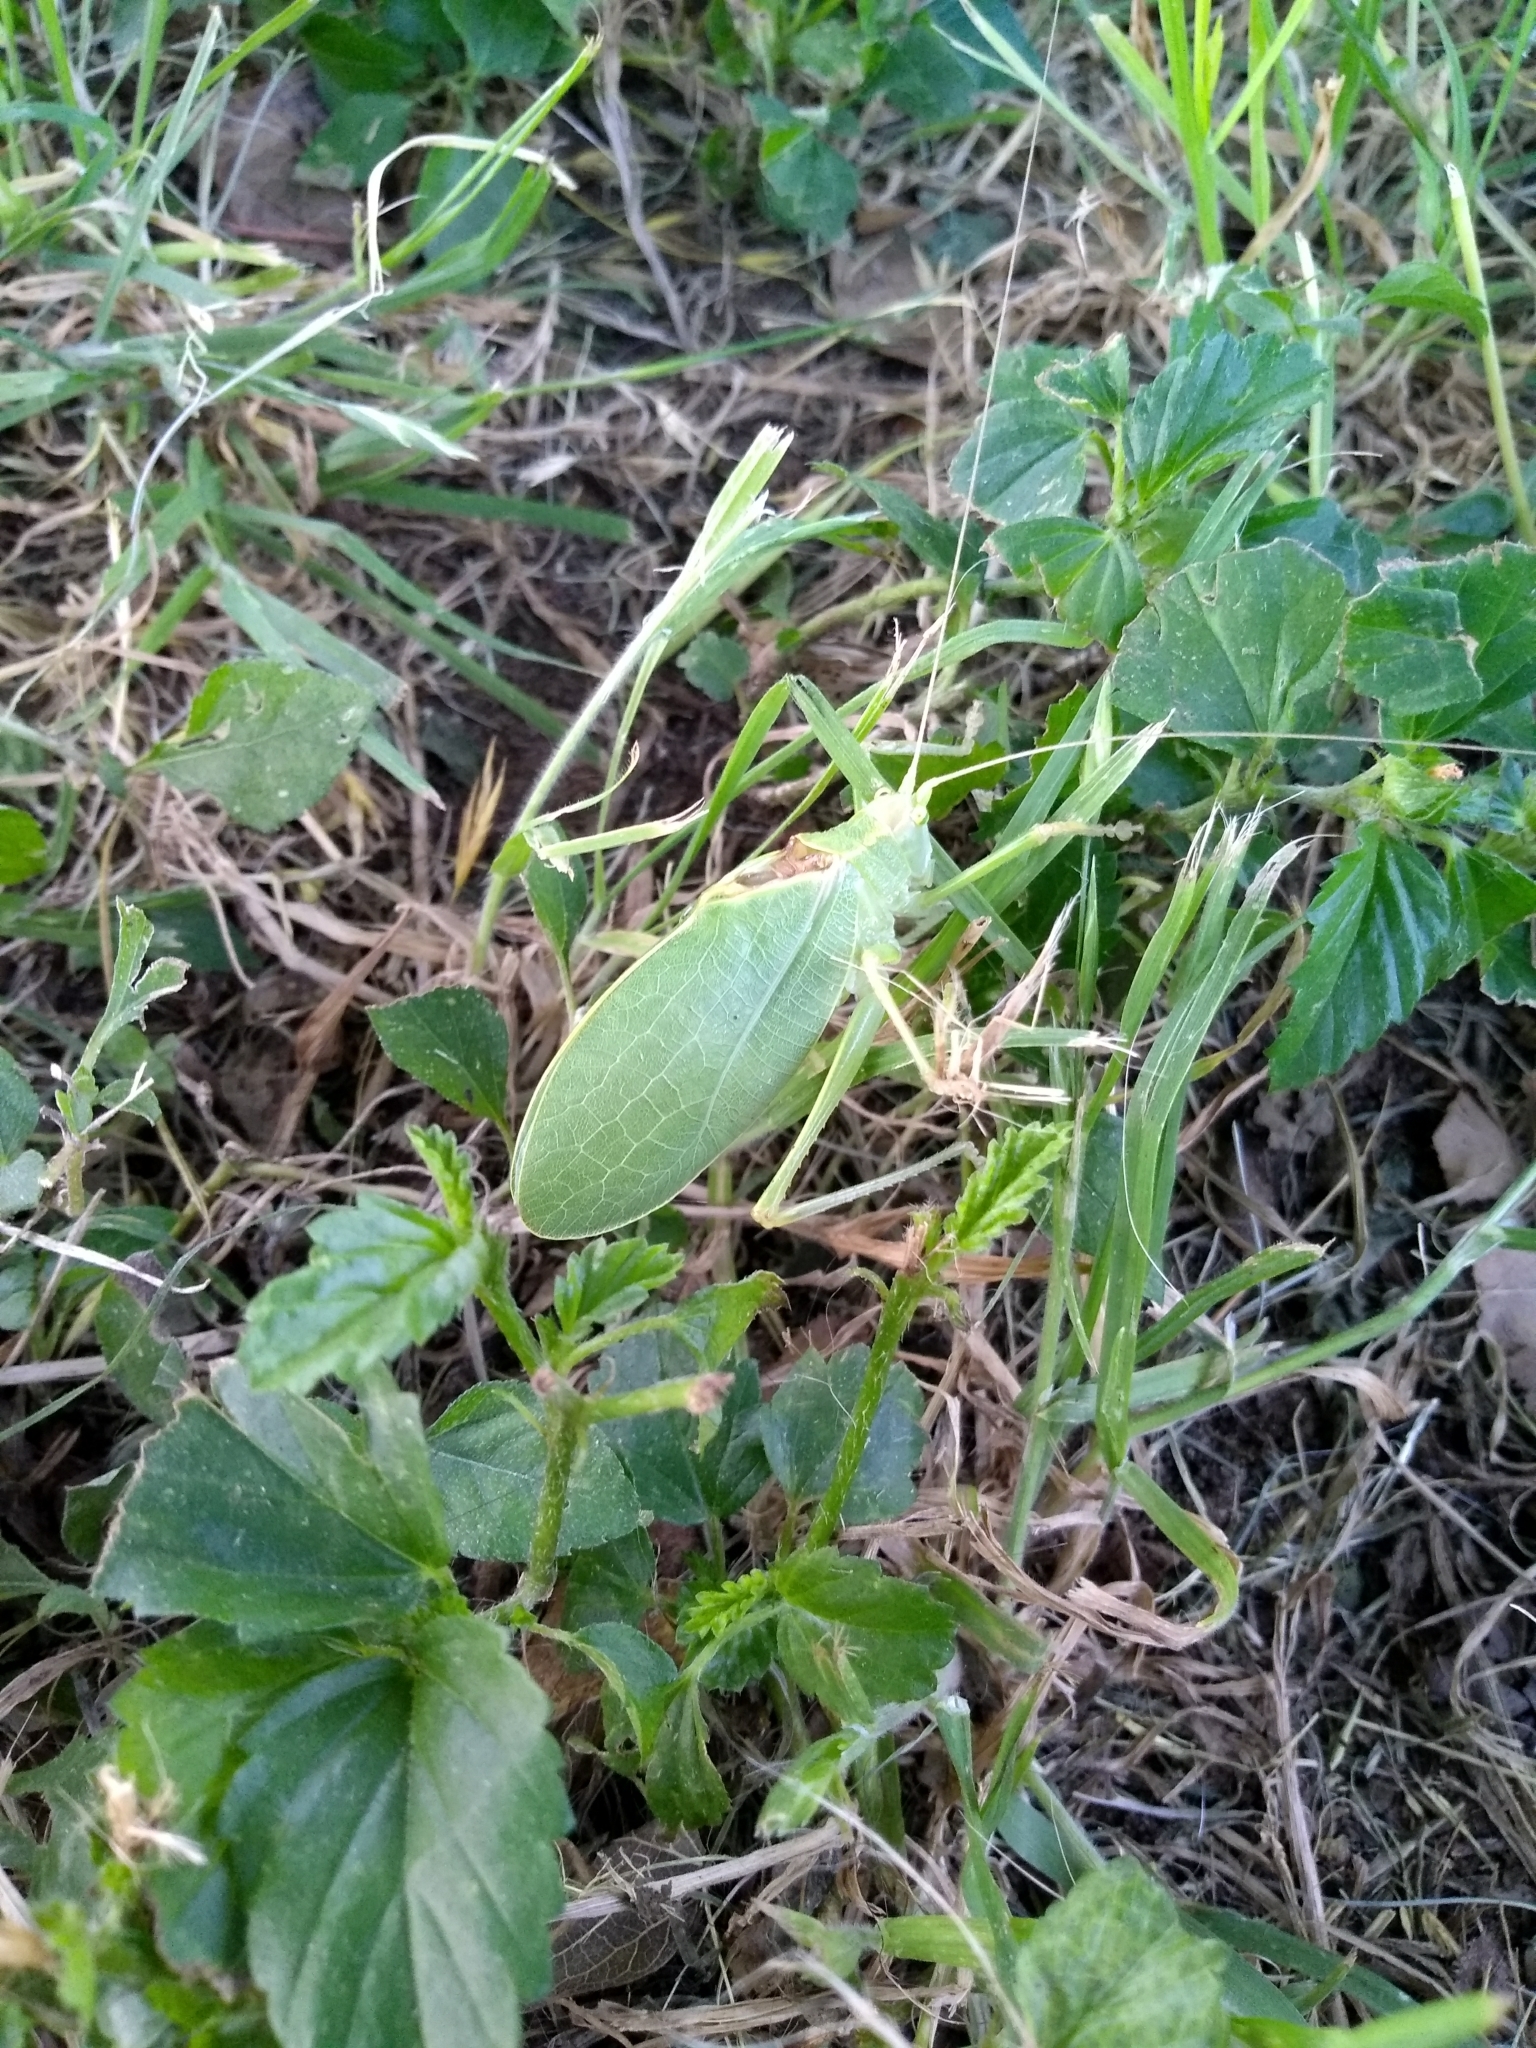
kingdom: Animalia
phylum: Arthropoda
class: Insecta
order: Orthoptera
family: Tettigoniidae
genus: Pterophylla
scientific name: Pterophylla camellifolia
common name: Common true katydid
